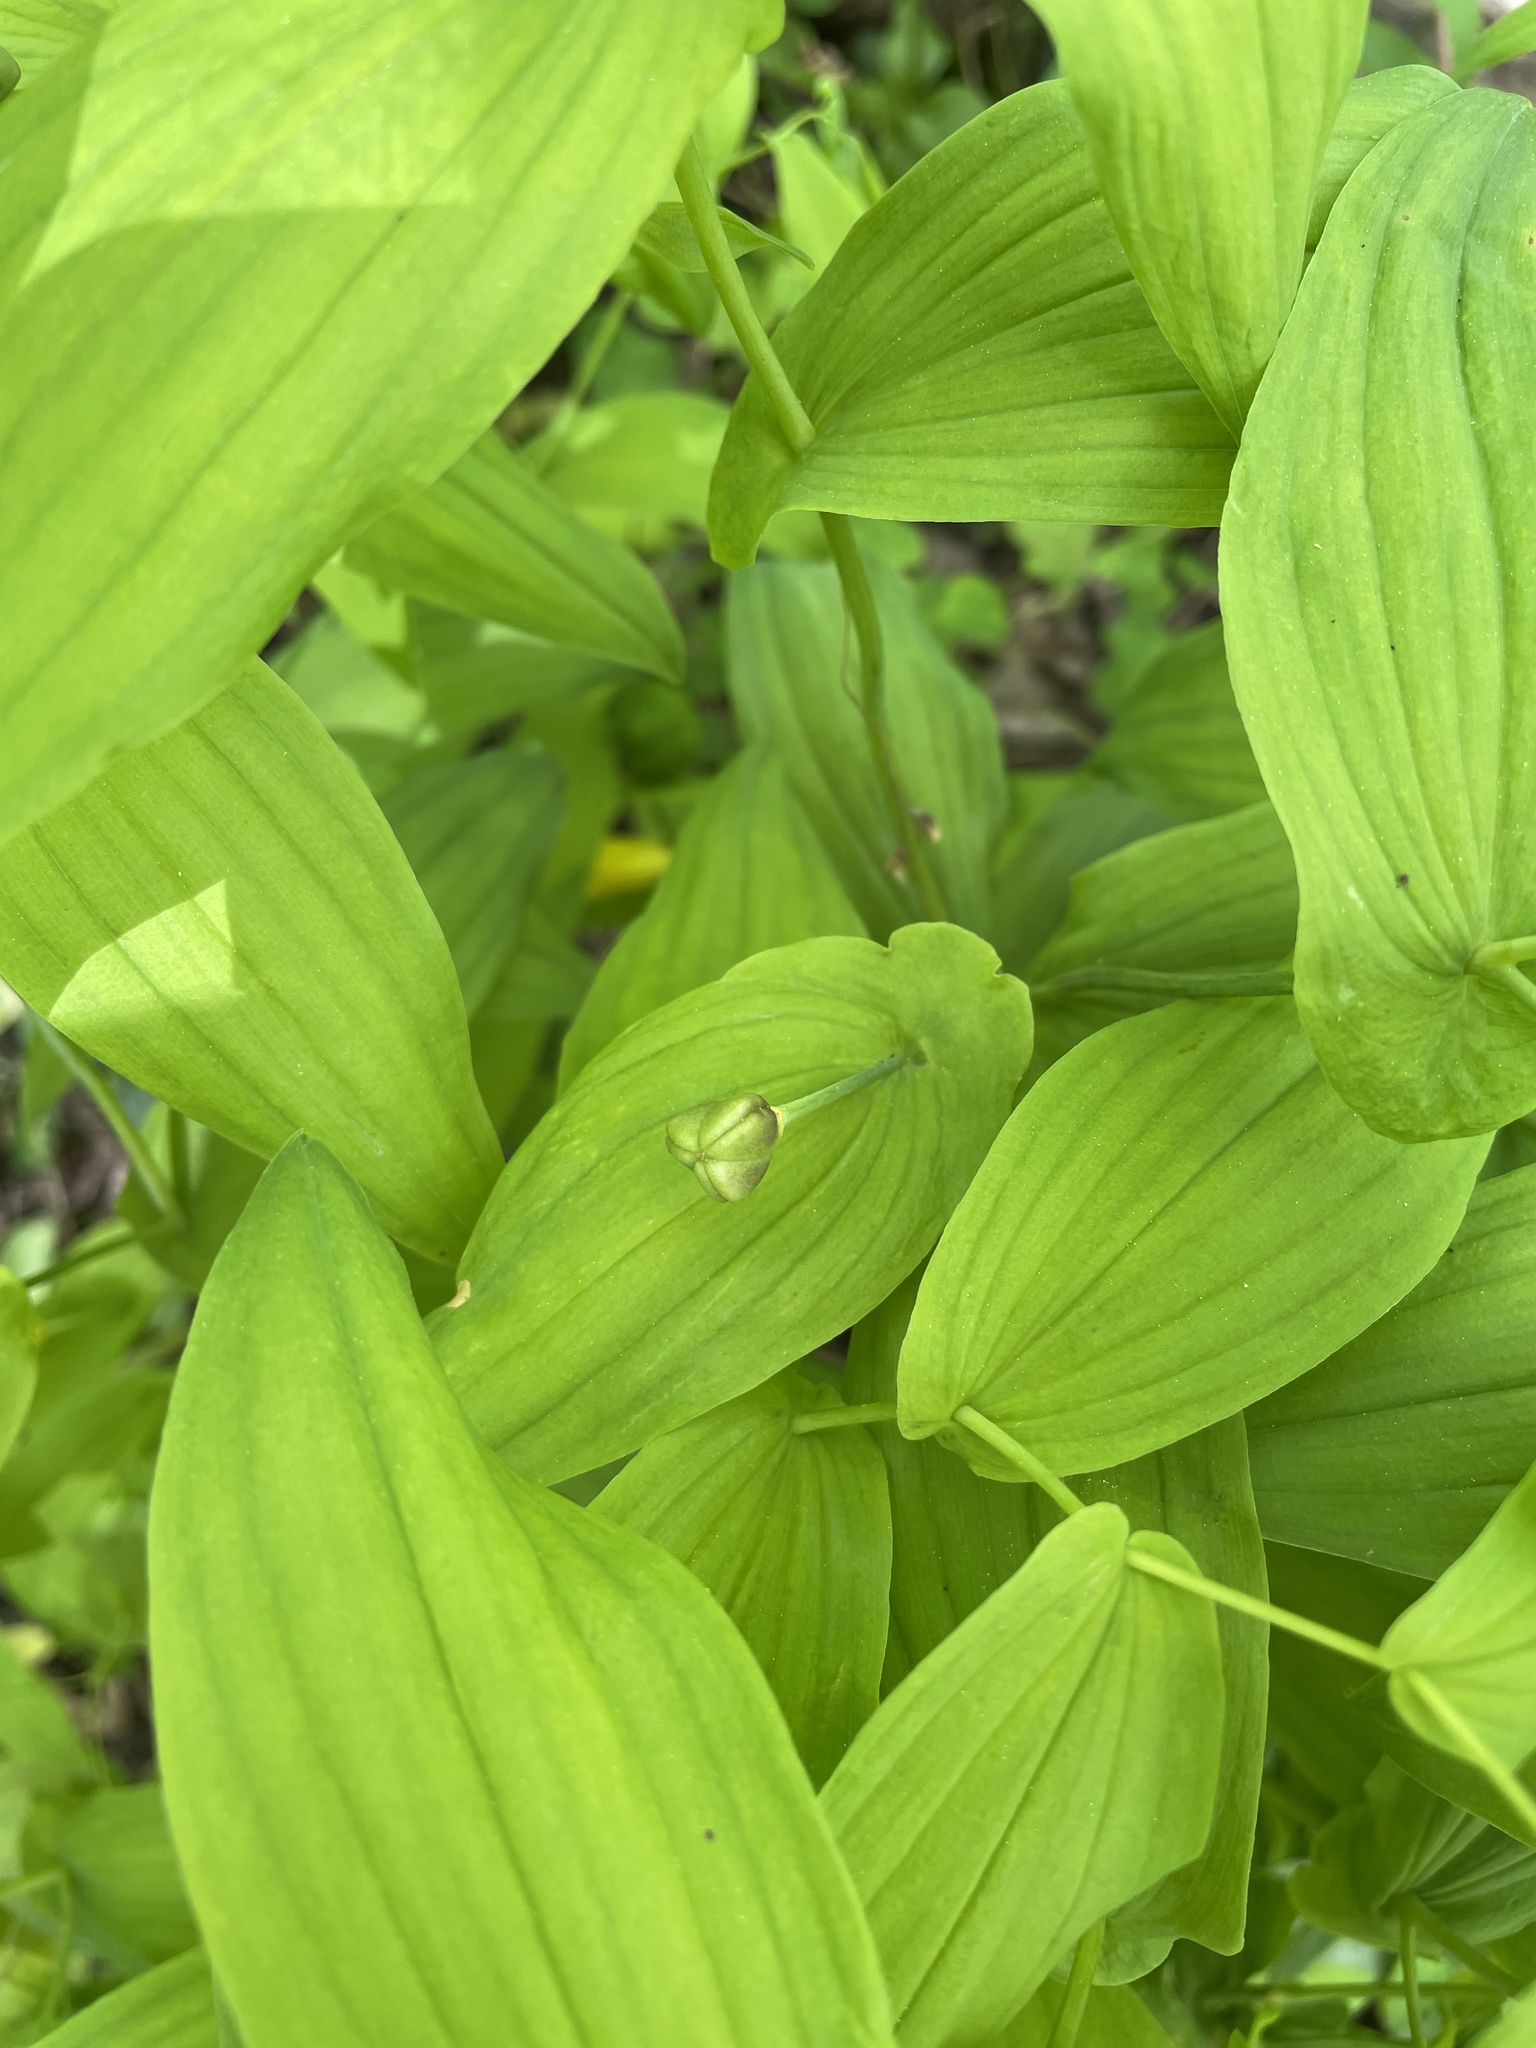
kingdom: Plantae
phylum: Tracheophyta
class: Liliopsida
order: Liliales
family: Colchicaceae
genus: Uvularia
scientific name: Uvularia grandiflora
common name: Bellwort
